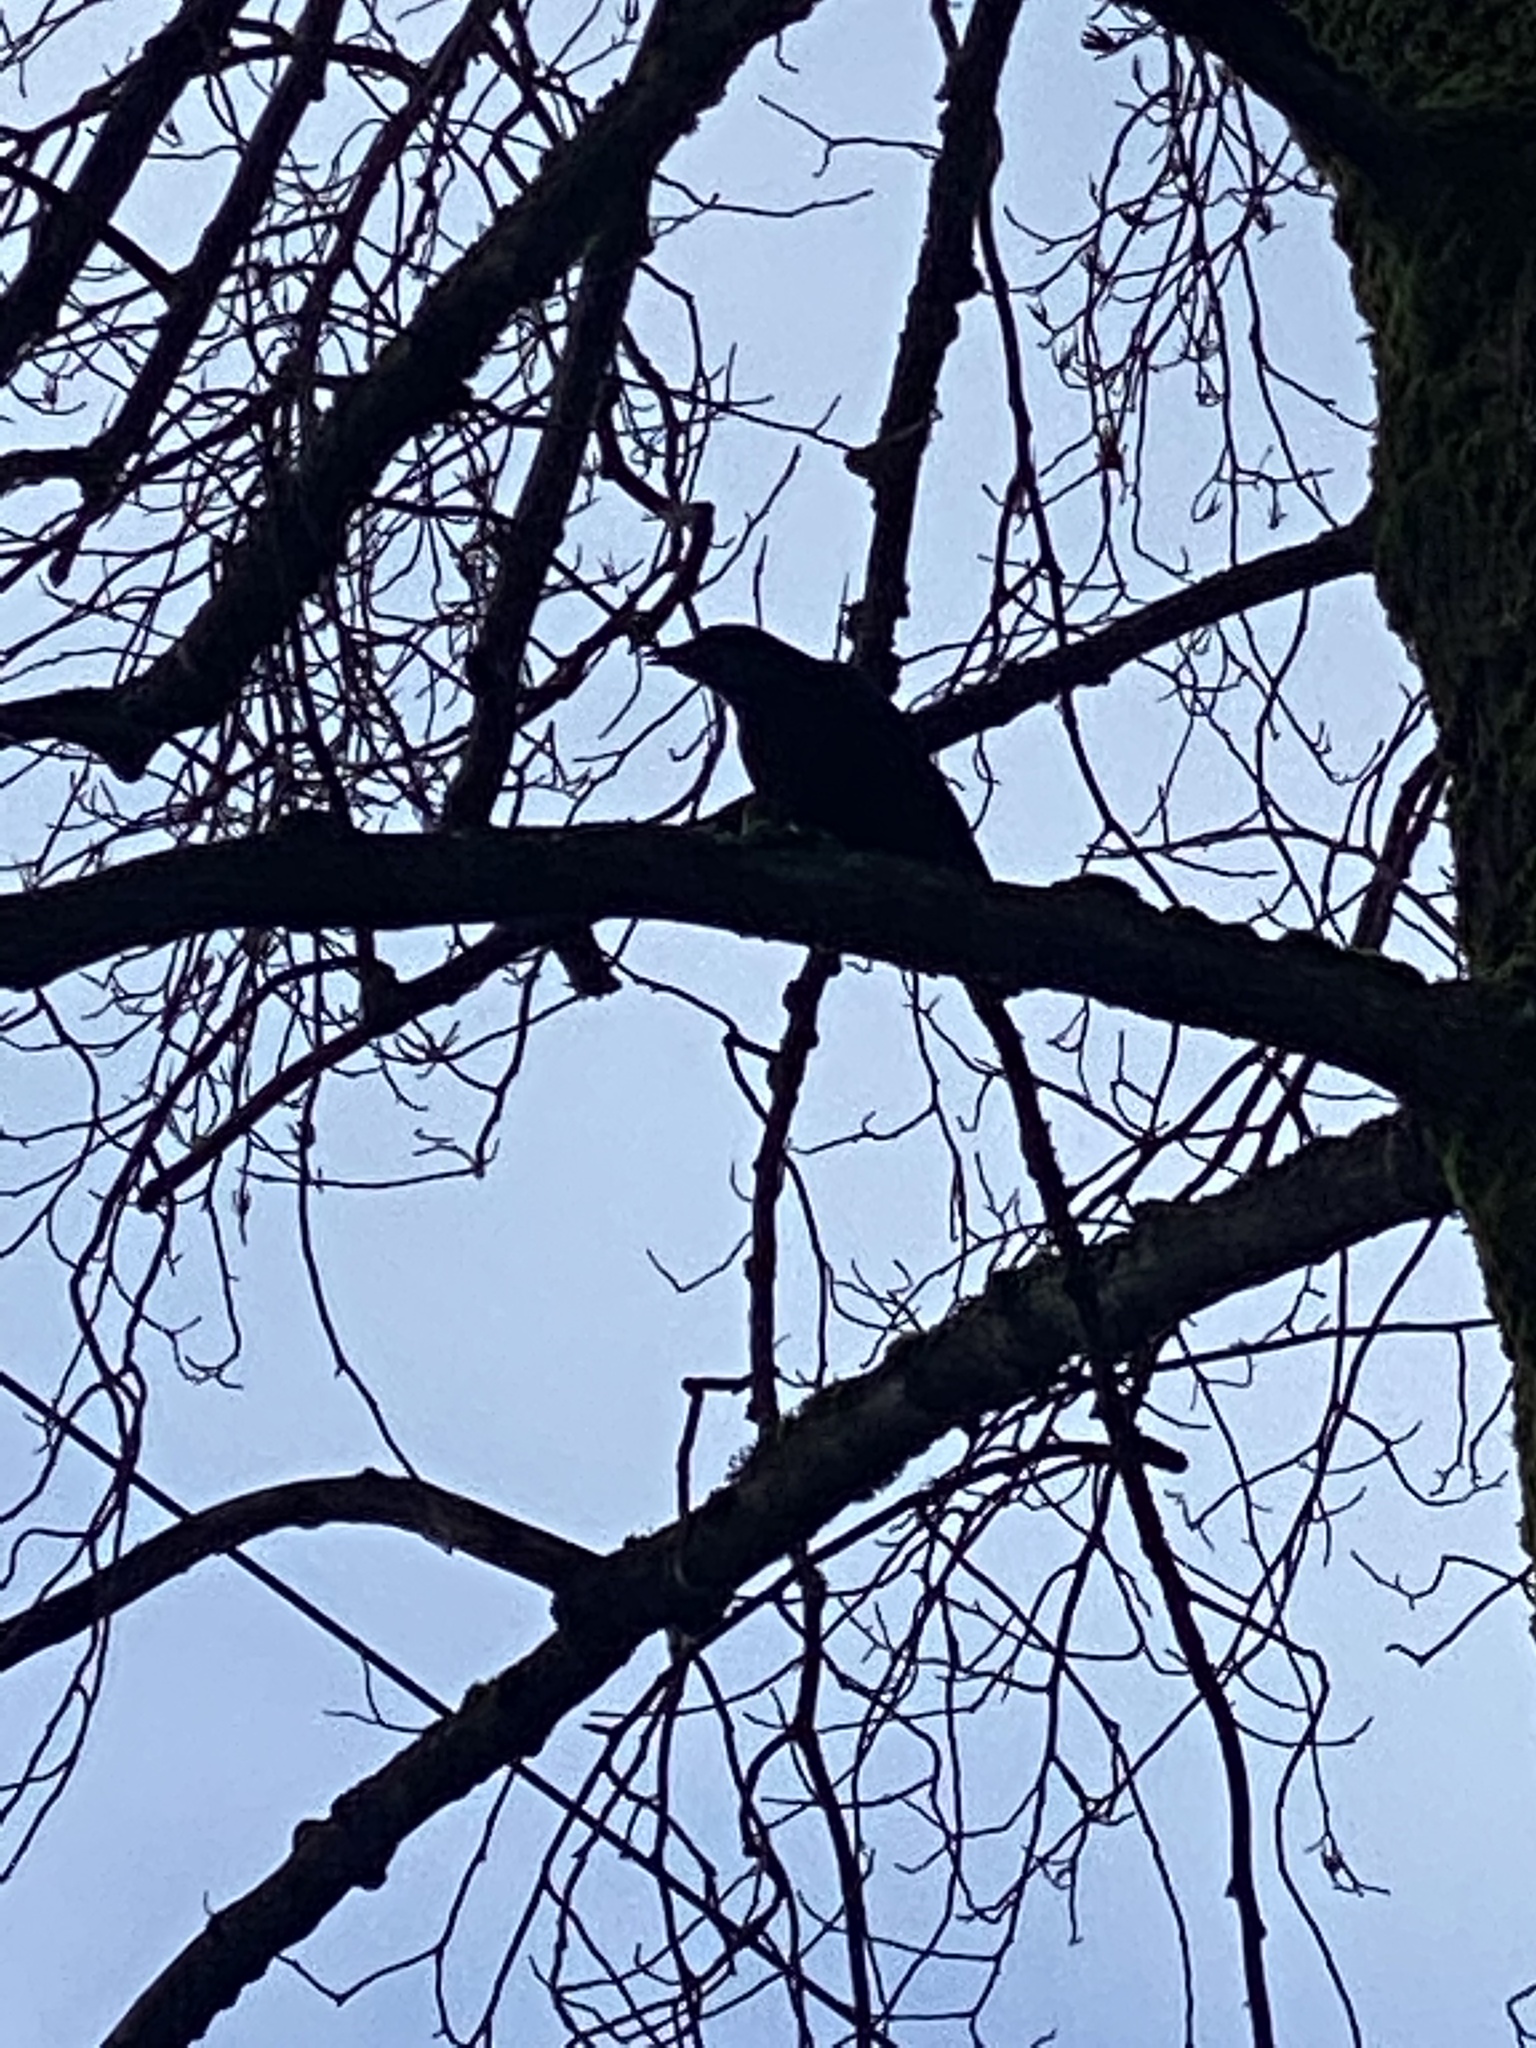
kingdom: Animalia
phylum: Chordata
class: Aves
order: Passeriformes
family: Corvidae
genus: Corvus
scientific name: Corvus brachyrhynchos
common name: American crow
